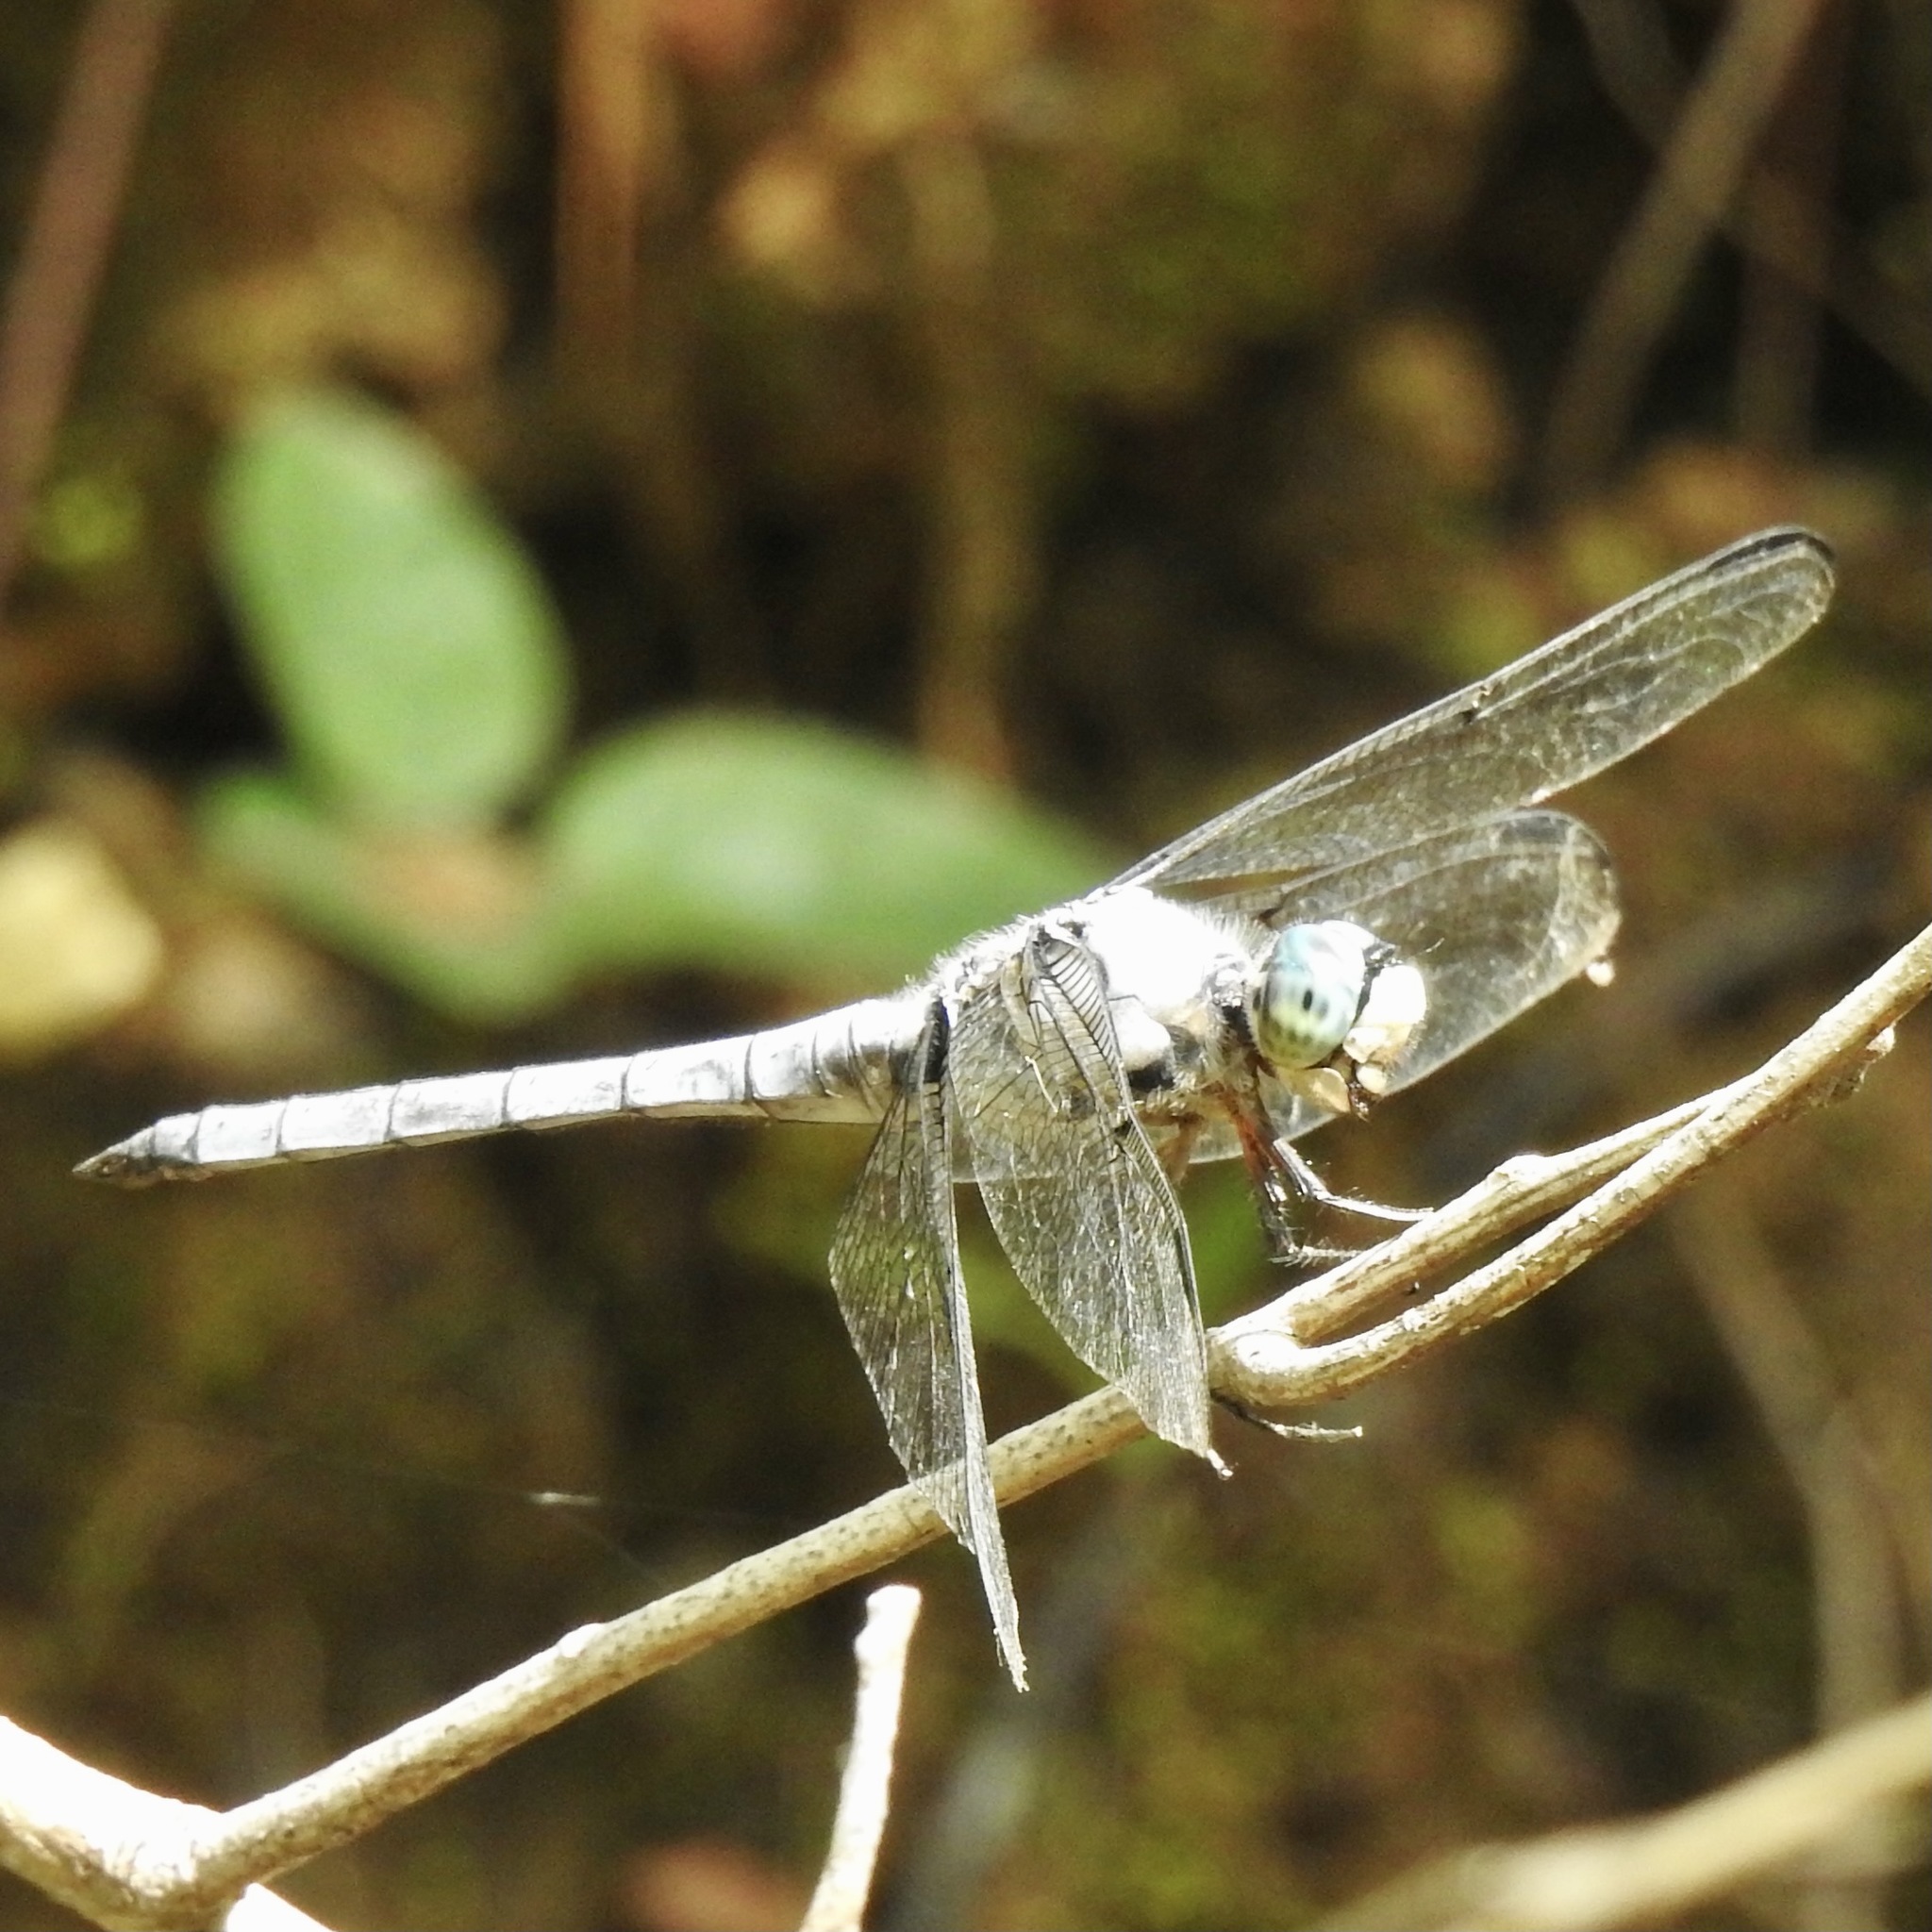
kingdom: Animalia
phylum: Arthropoda
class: Insecta
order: Odonata
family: Libellulidae
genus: Libellula
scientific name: Libellula vibrans
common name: Great blue skimmer
